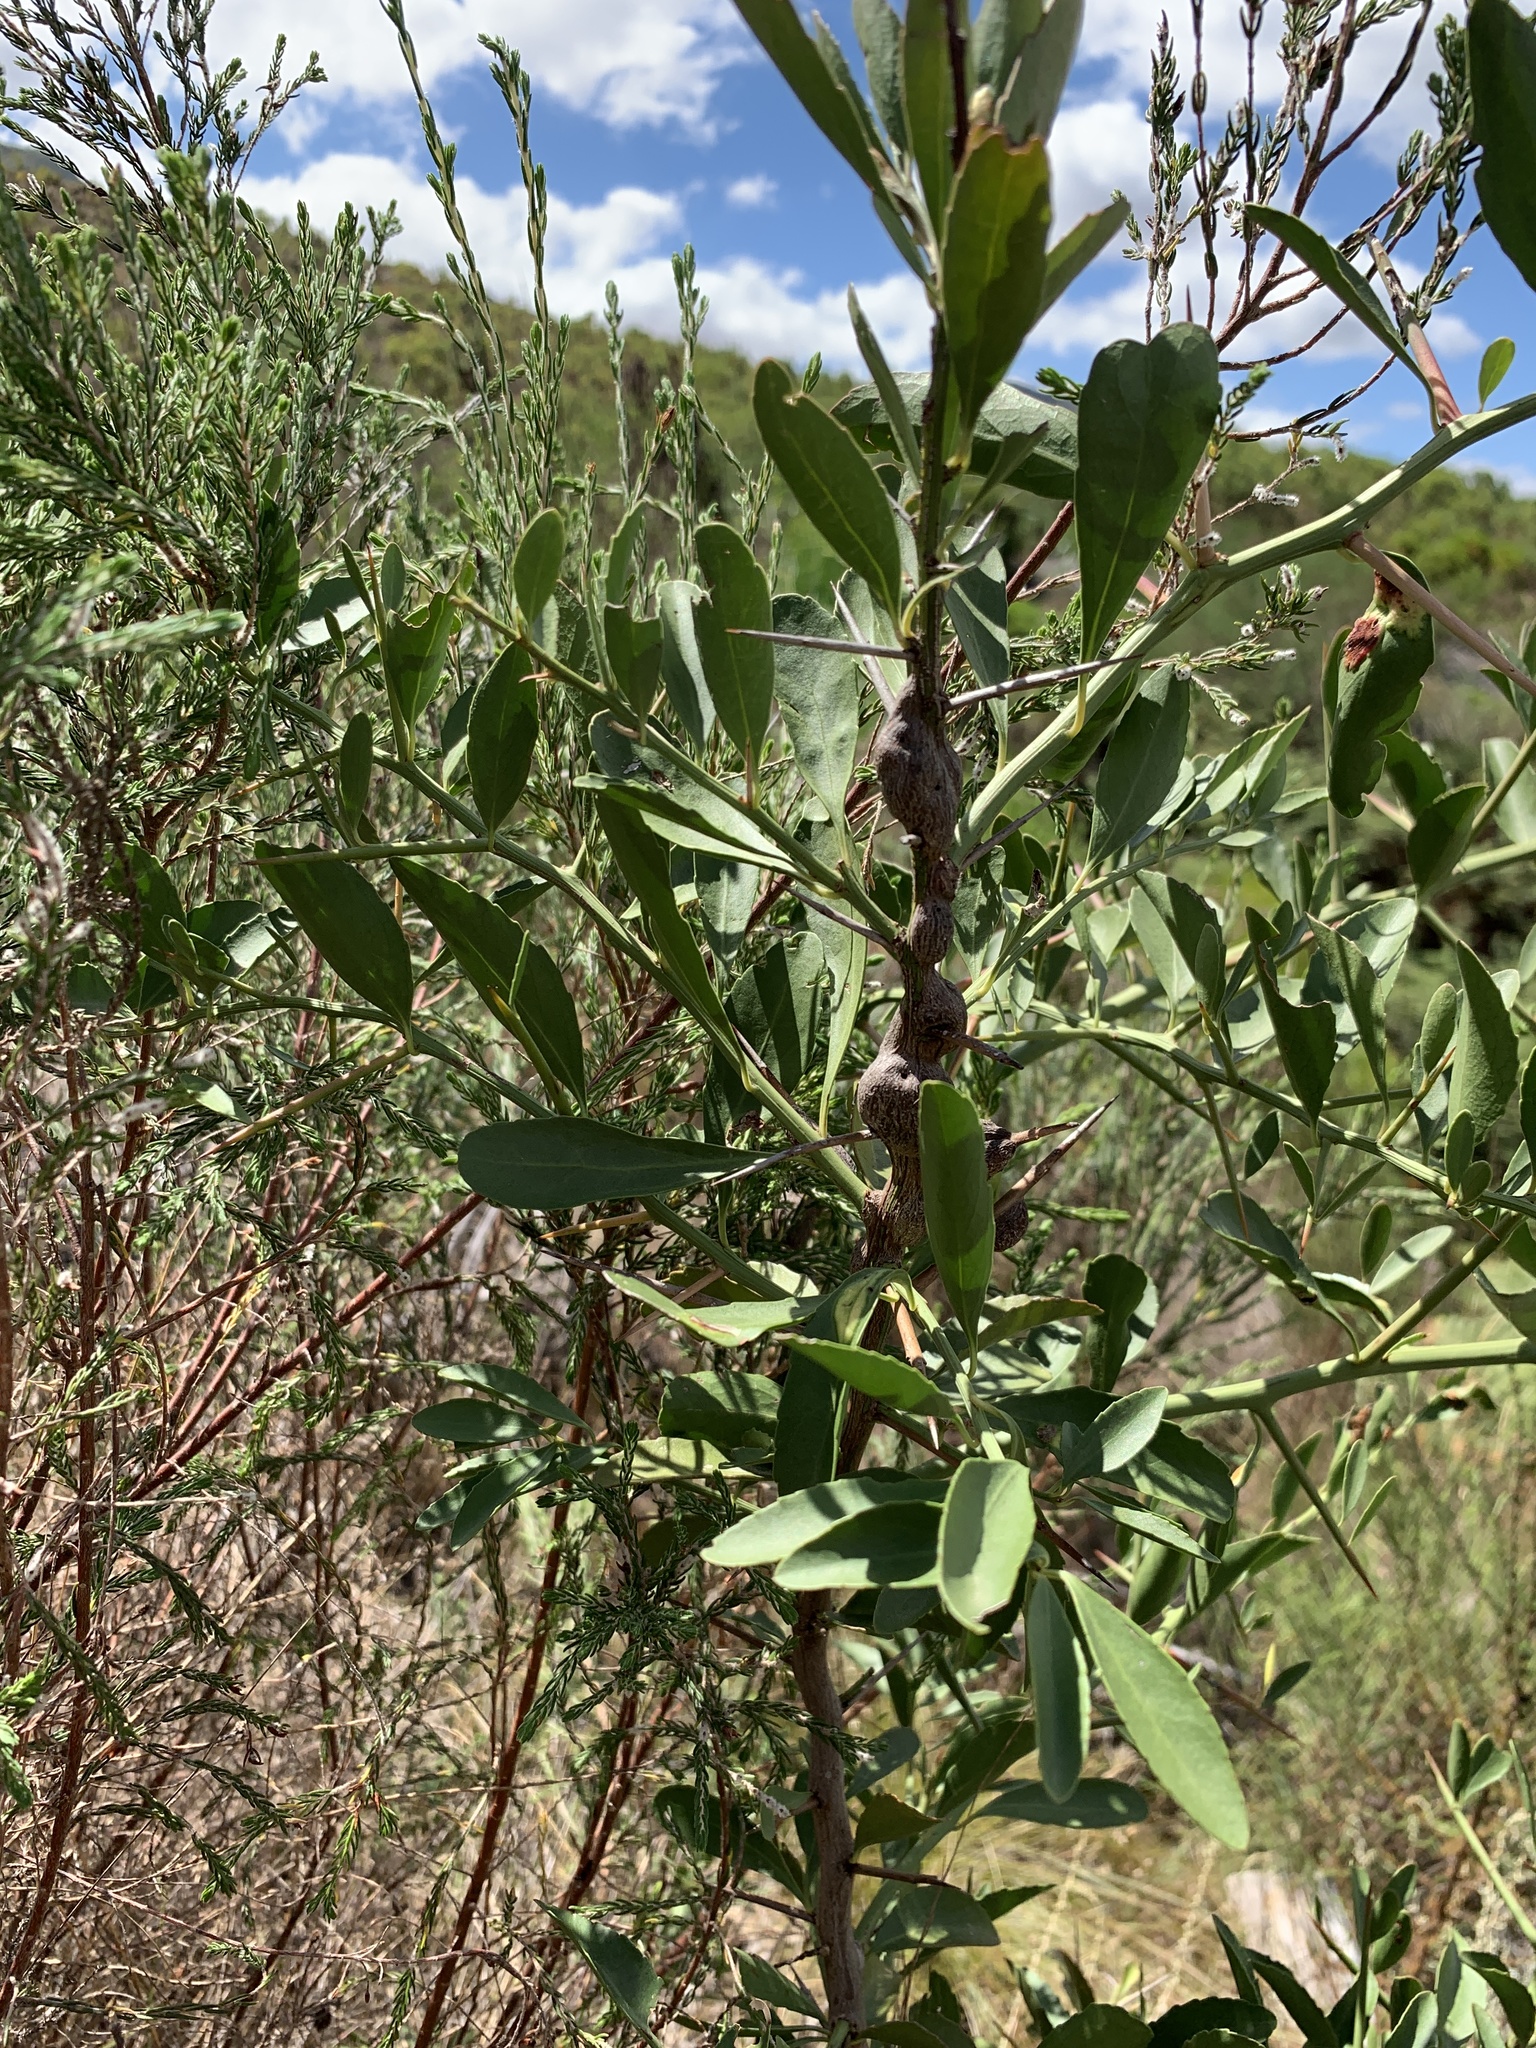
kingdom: Plantae
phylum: Tracheophyta
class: Magnoliopsida
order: Celastrales
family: Celastraceae
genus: Gymnosporia
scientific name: Gymnosporia buxifolia
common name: Common spike-thorn
